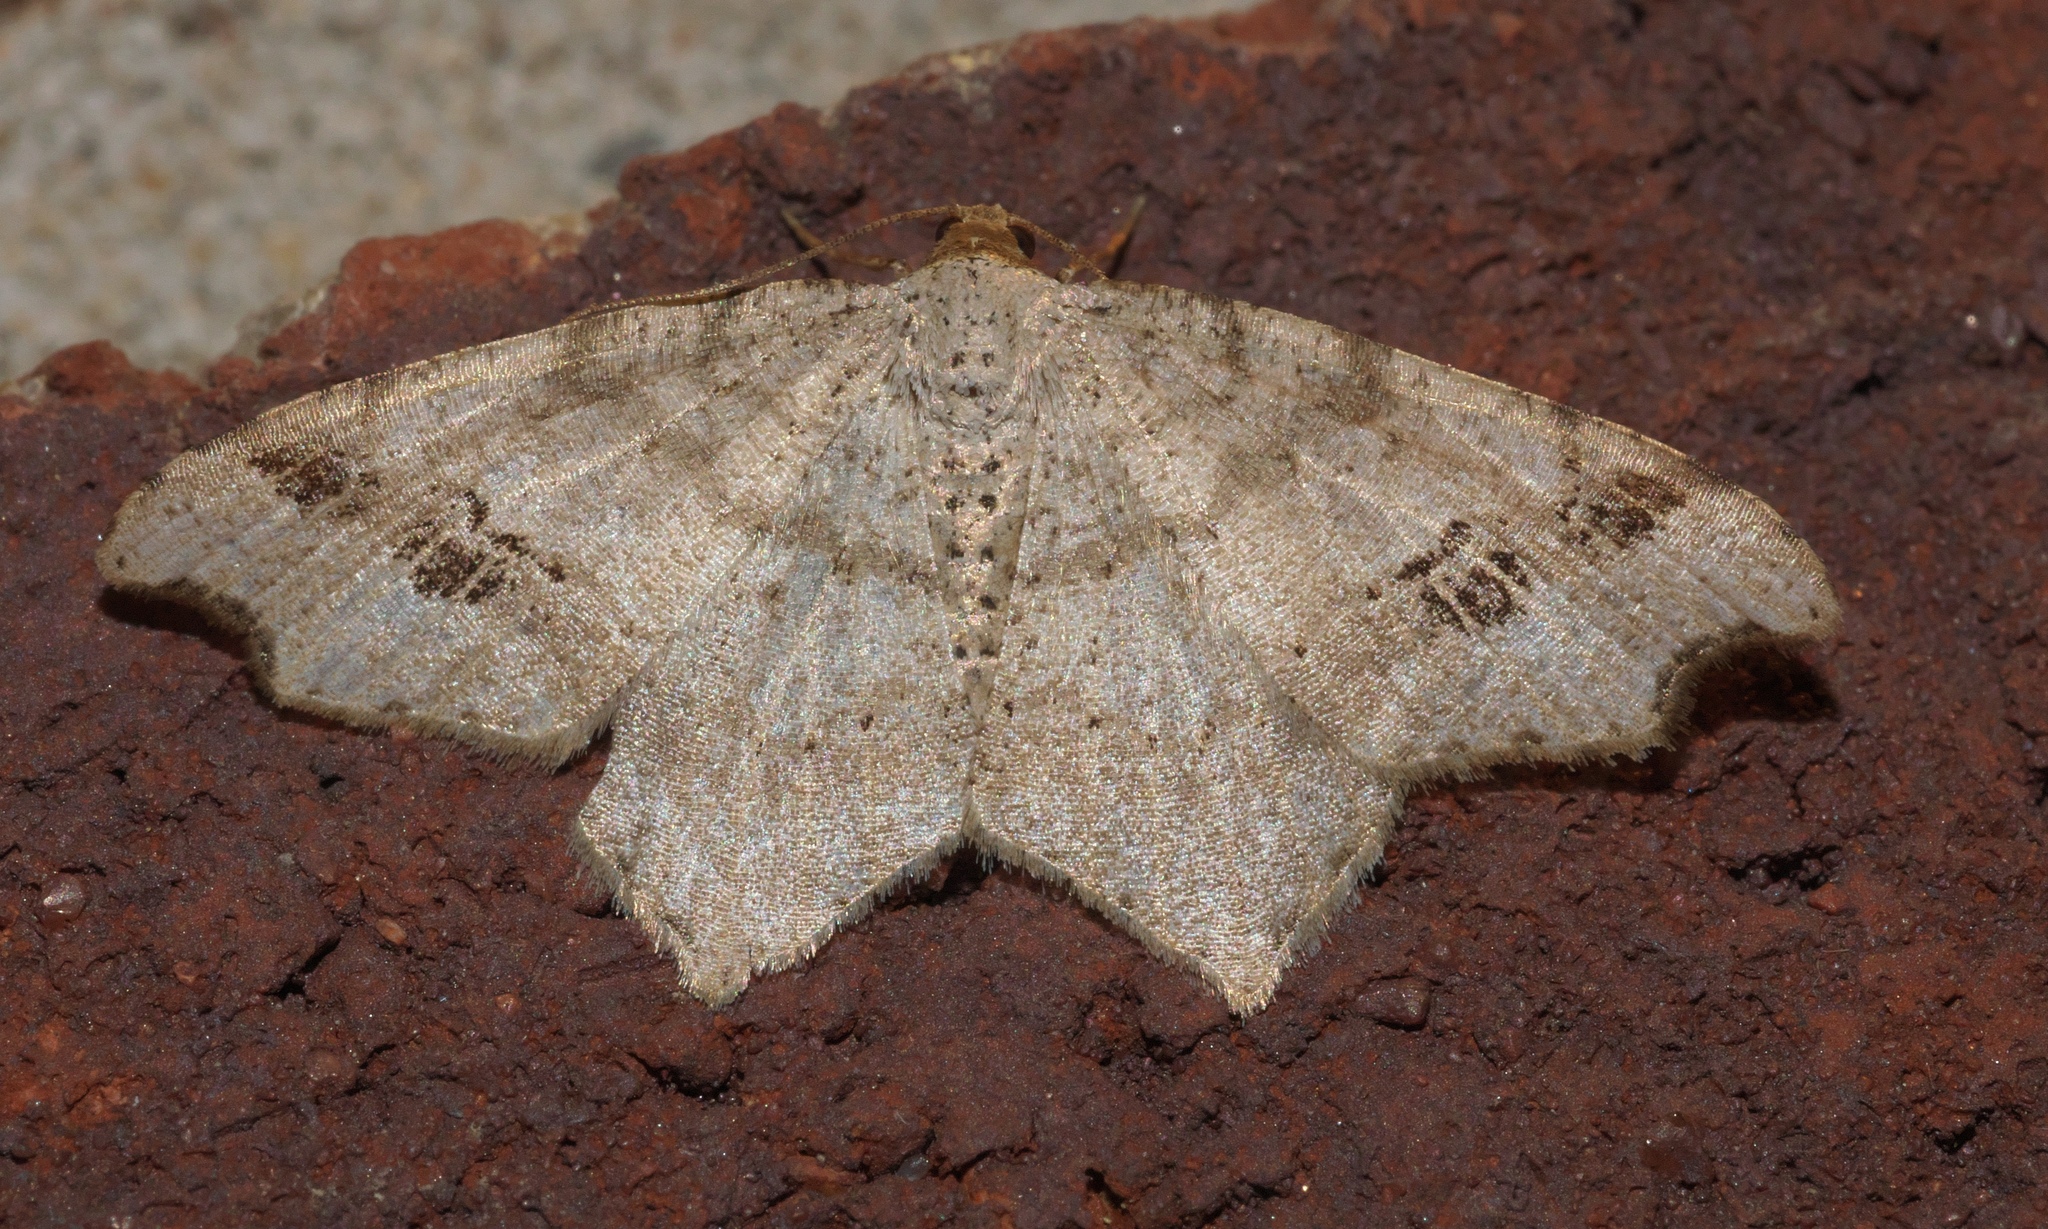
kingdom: Animalia
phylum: Arthropoda
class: Insecta
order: Lepidoptera
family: Geometridae
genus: Macaria
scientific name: Macaria aemulataria
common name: Common angle
